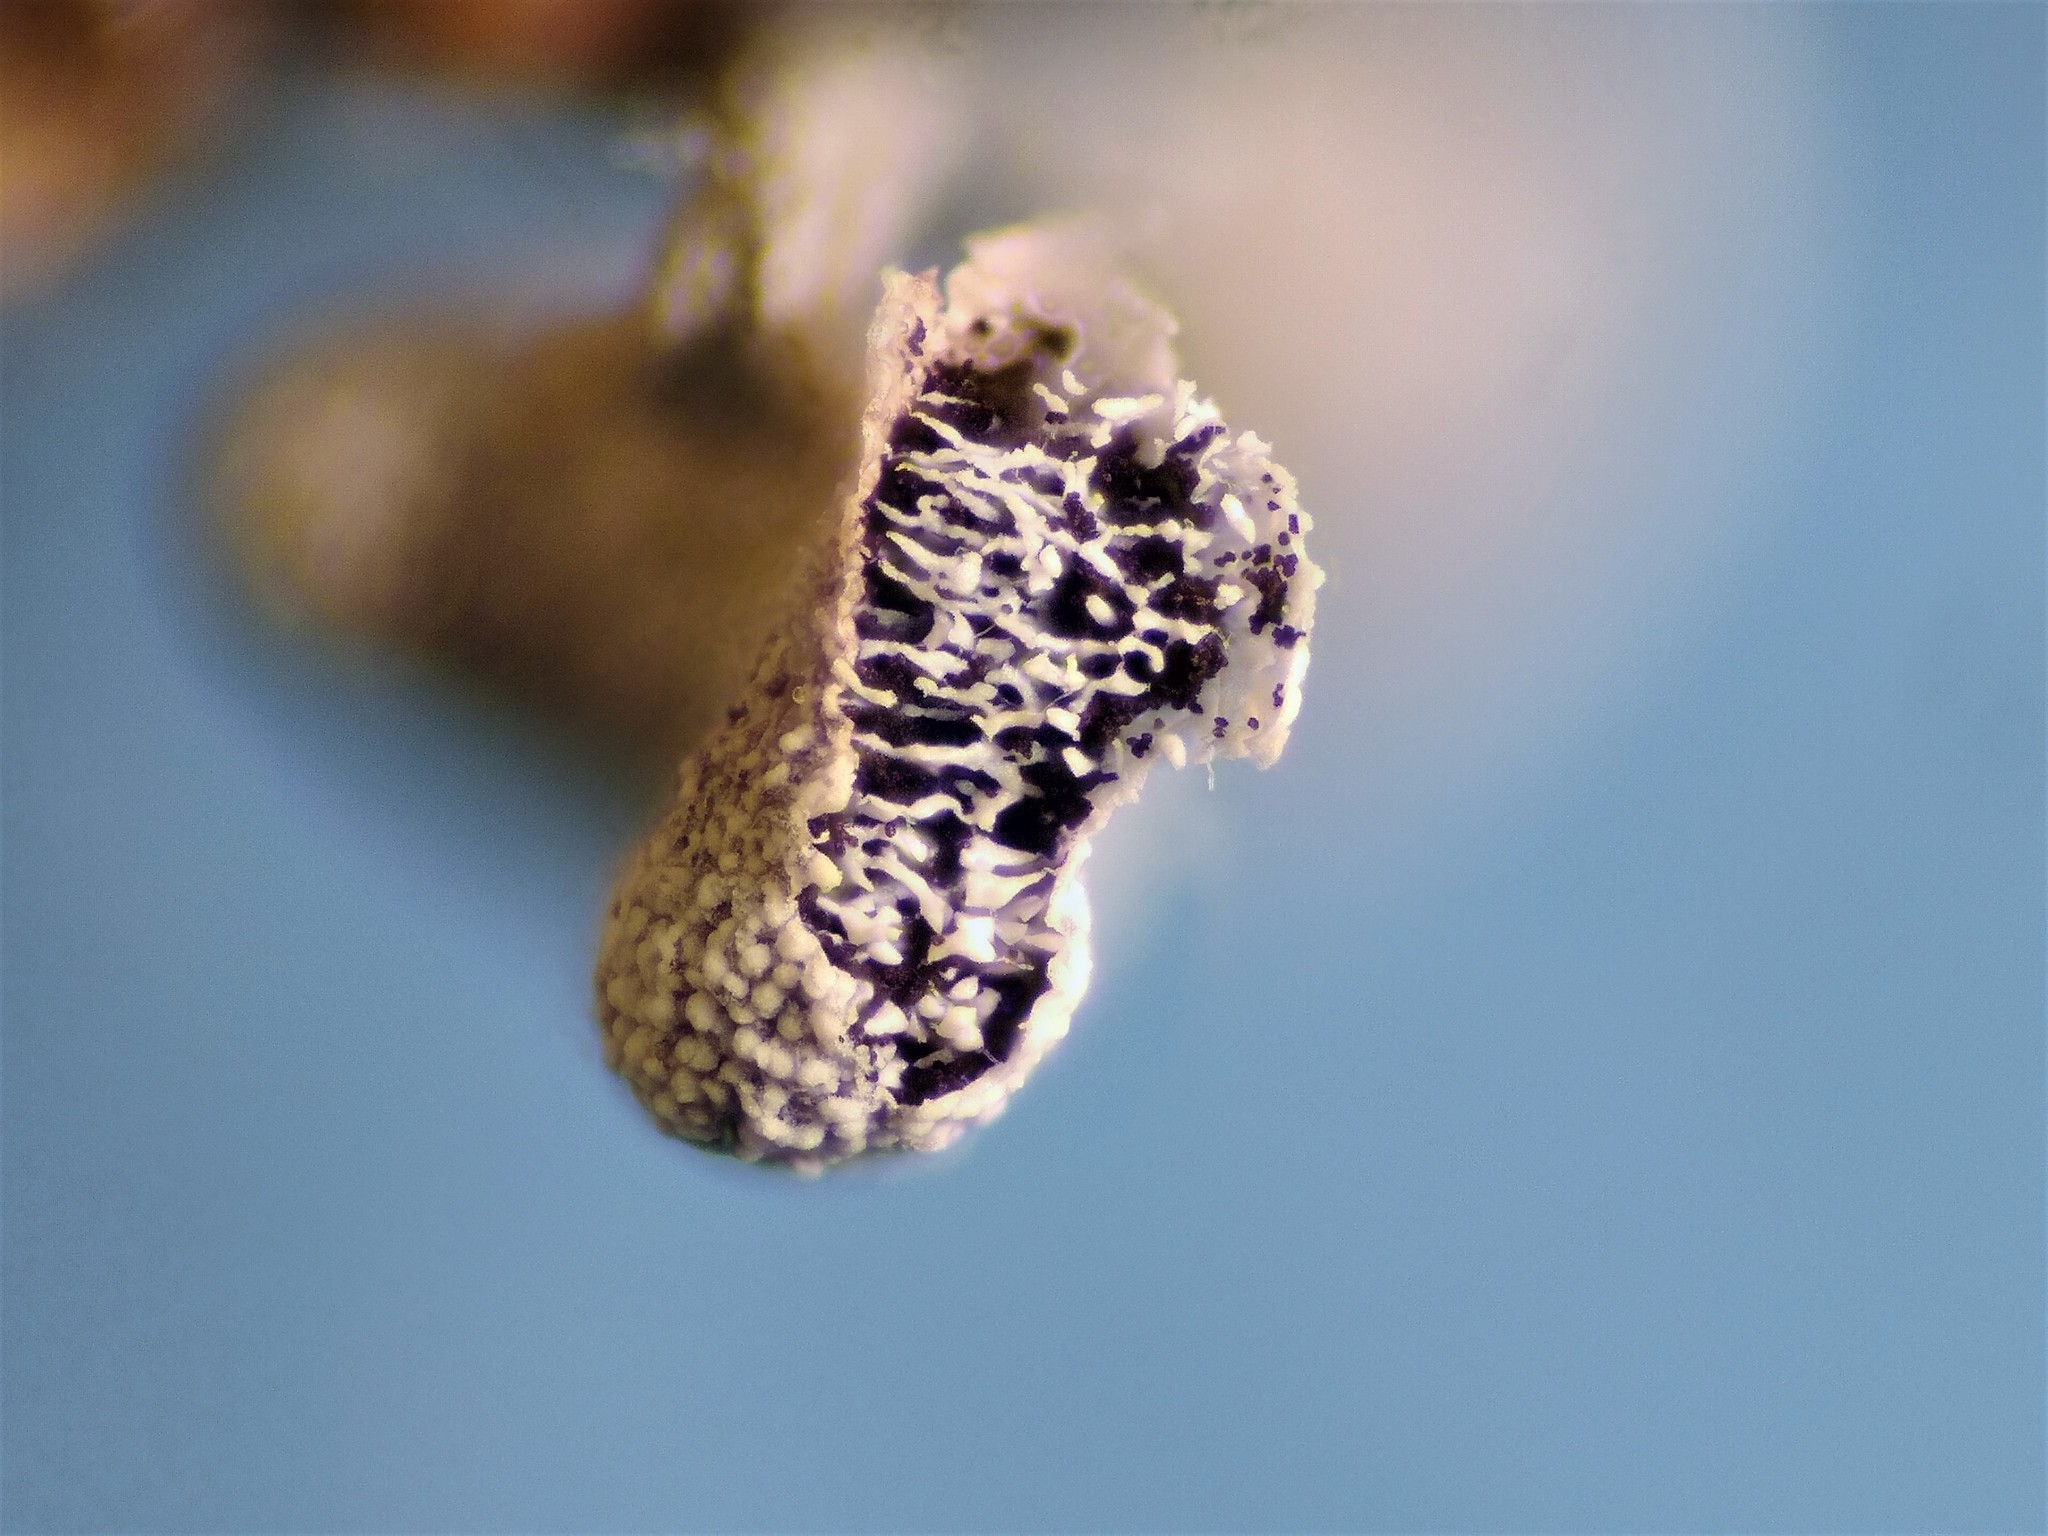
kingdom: Protozoa
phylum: Mycetozoa
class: Myxomycetes
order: Physarales
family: Physaraceae
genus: Physarum
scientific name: Physarum compressum
